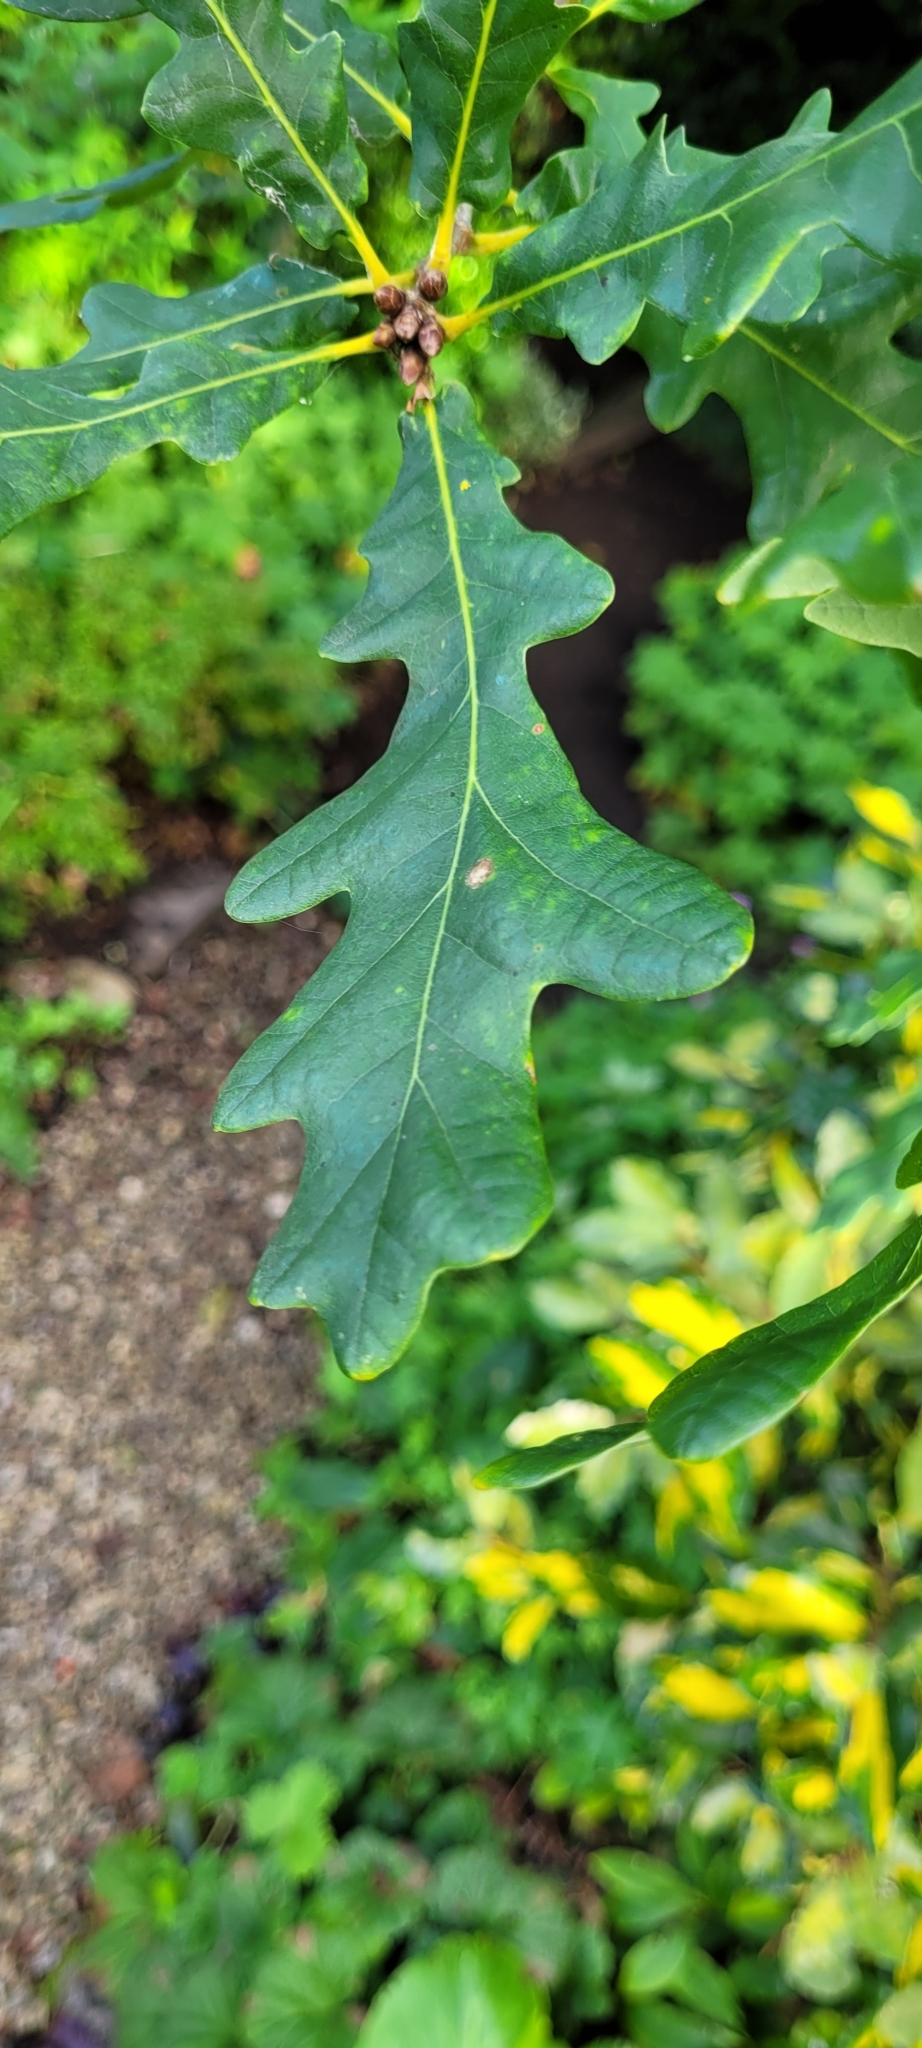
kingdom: Plantae
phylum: Tracheophyta
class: Magnoliopsida
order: Fagales
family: Fagaceae
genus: Quercus
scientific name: Quercus robur
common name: Pedunculate oak
